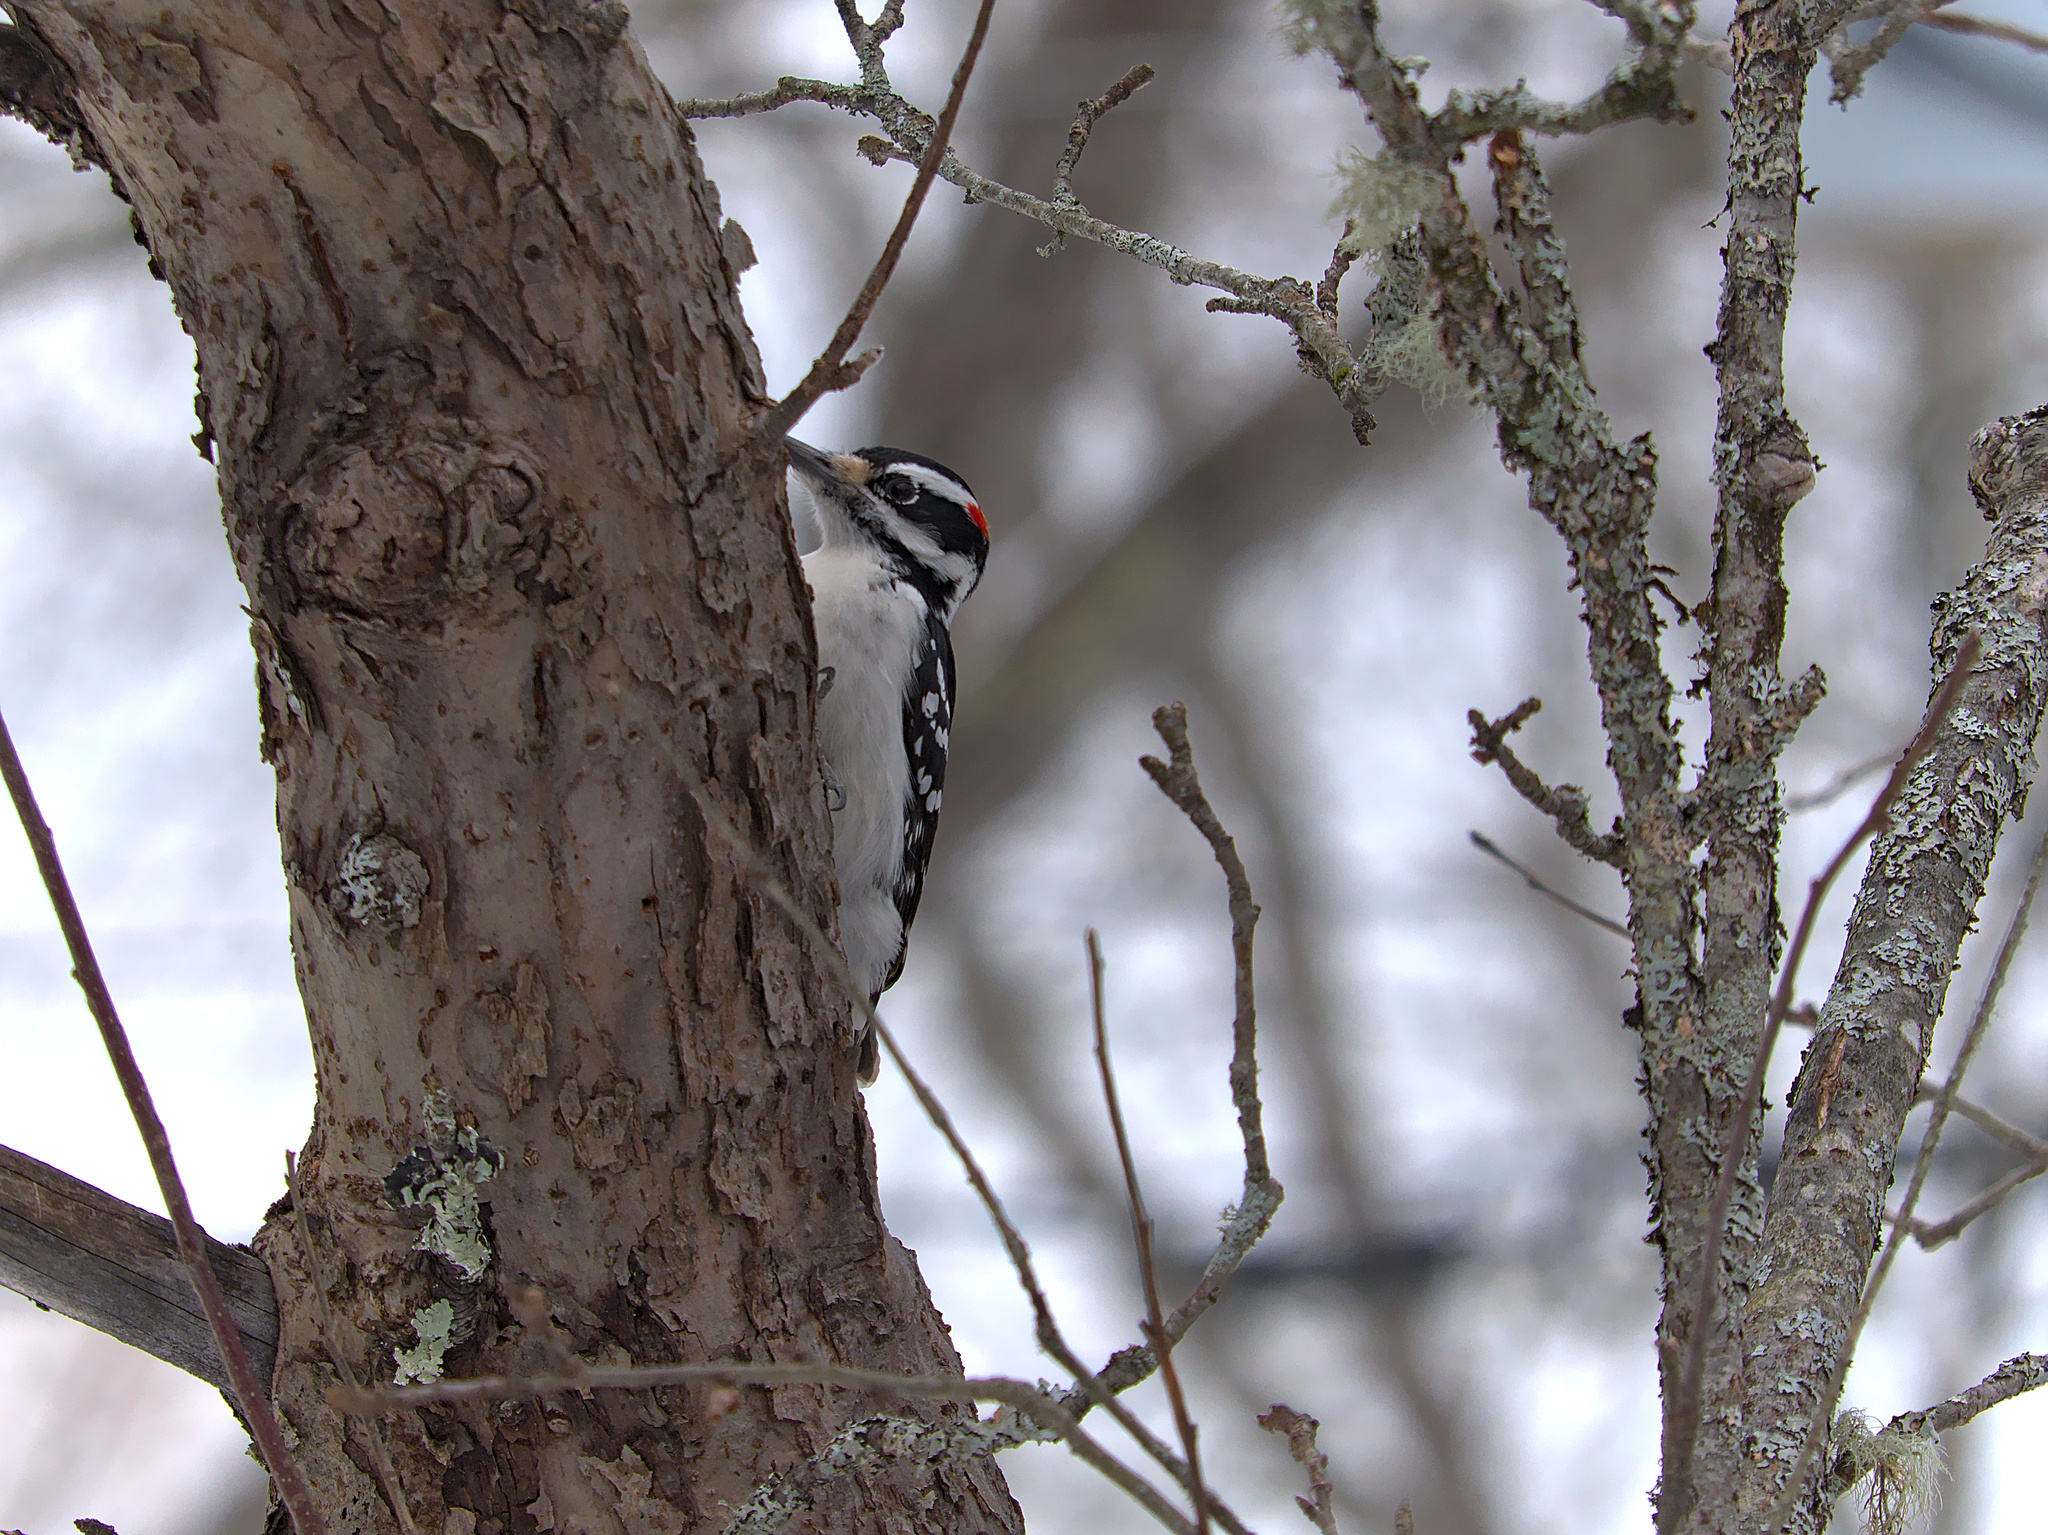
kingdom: Animalia
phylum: Chordata
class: Aves
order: Piciformes
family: Picidae
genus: Leuconotopicus
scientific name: Leuconotopicus villosus
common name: Hairy woodpecker
